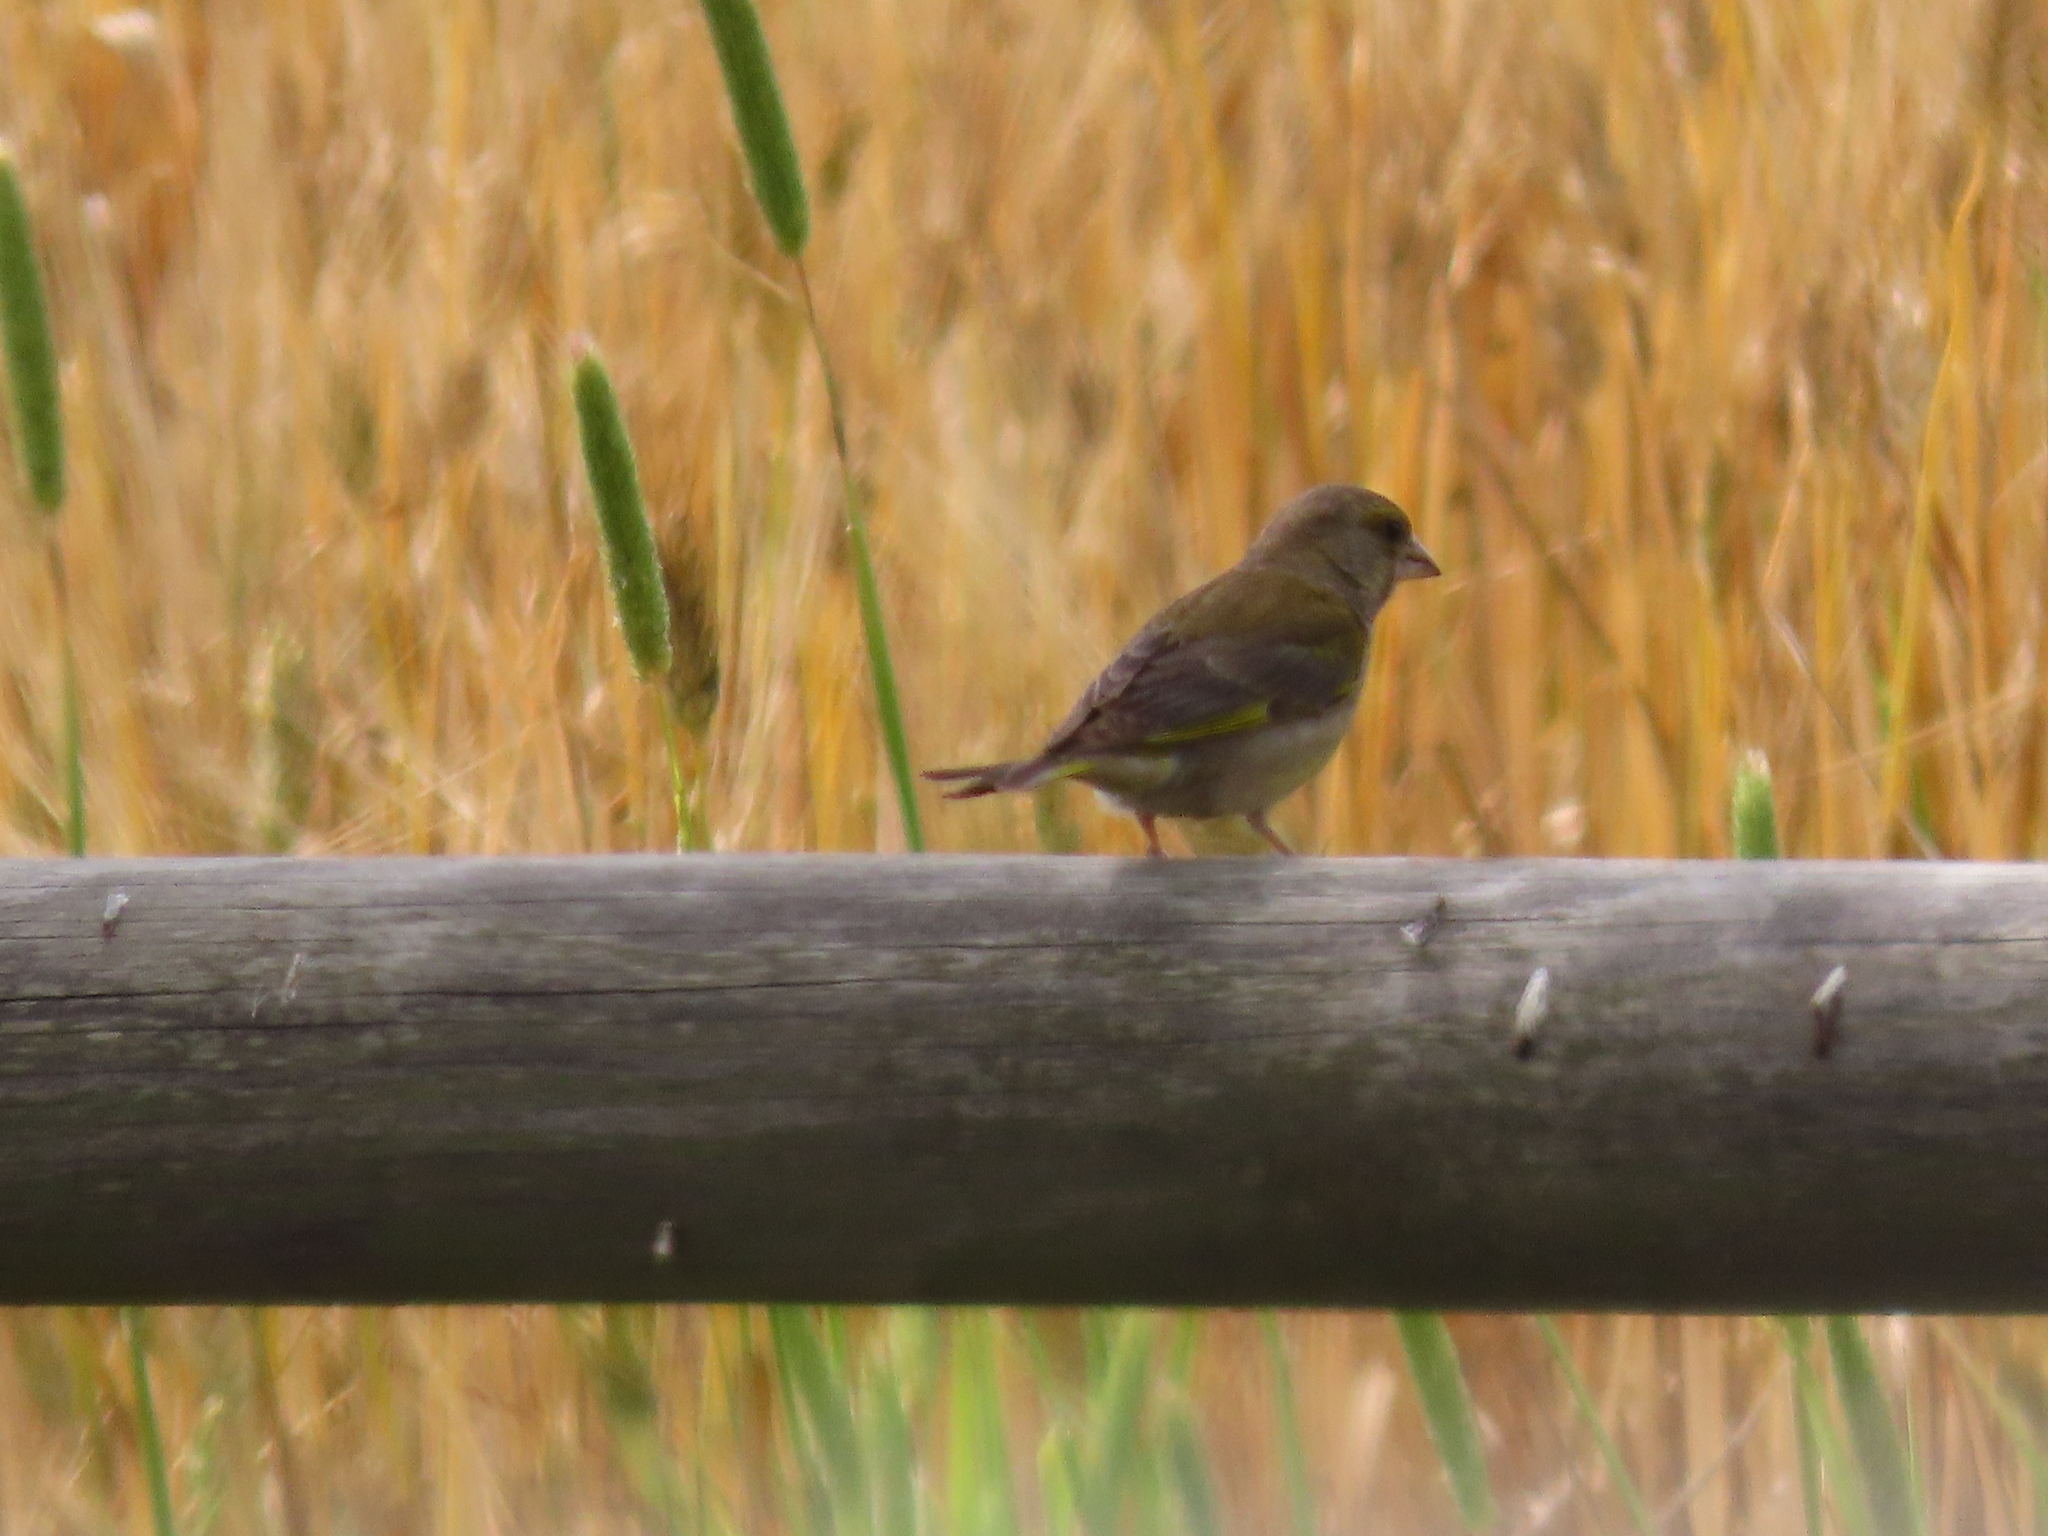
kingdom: Plantae
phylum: Tracheophyta
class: Liliopsida
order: Poales
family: Poaceae
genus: Chloris
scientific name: Chloris chloris
